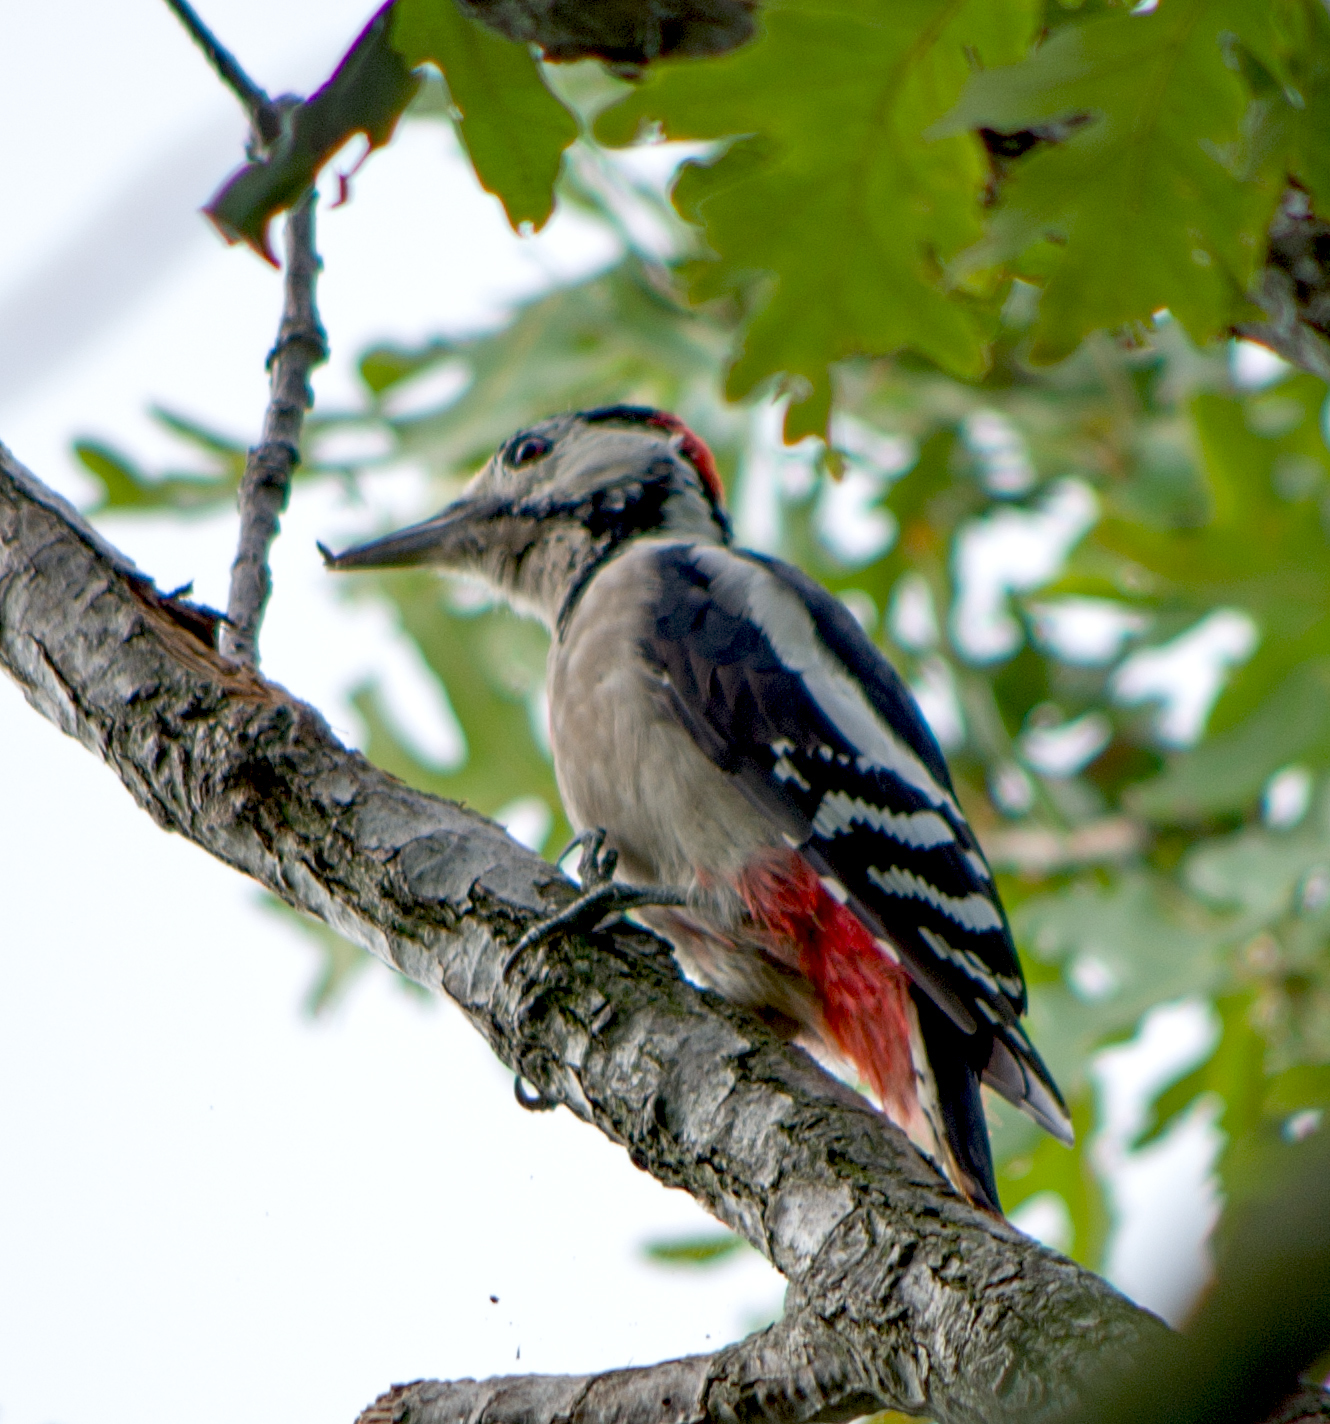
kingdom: Animalia
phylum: Chordata
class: Aves
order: Piciformes
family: Picidae
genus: Dendrocopos
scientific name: Dendrocopos major
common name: Great spotted woodpecker
